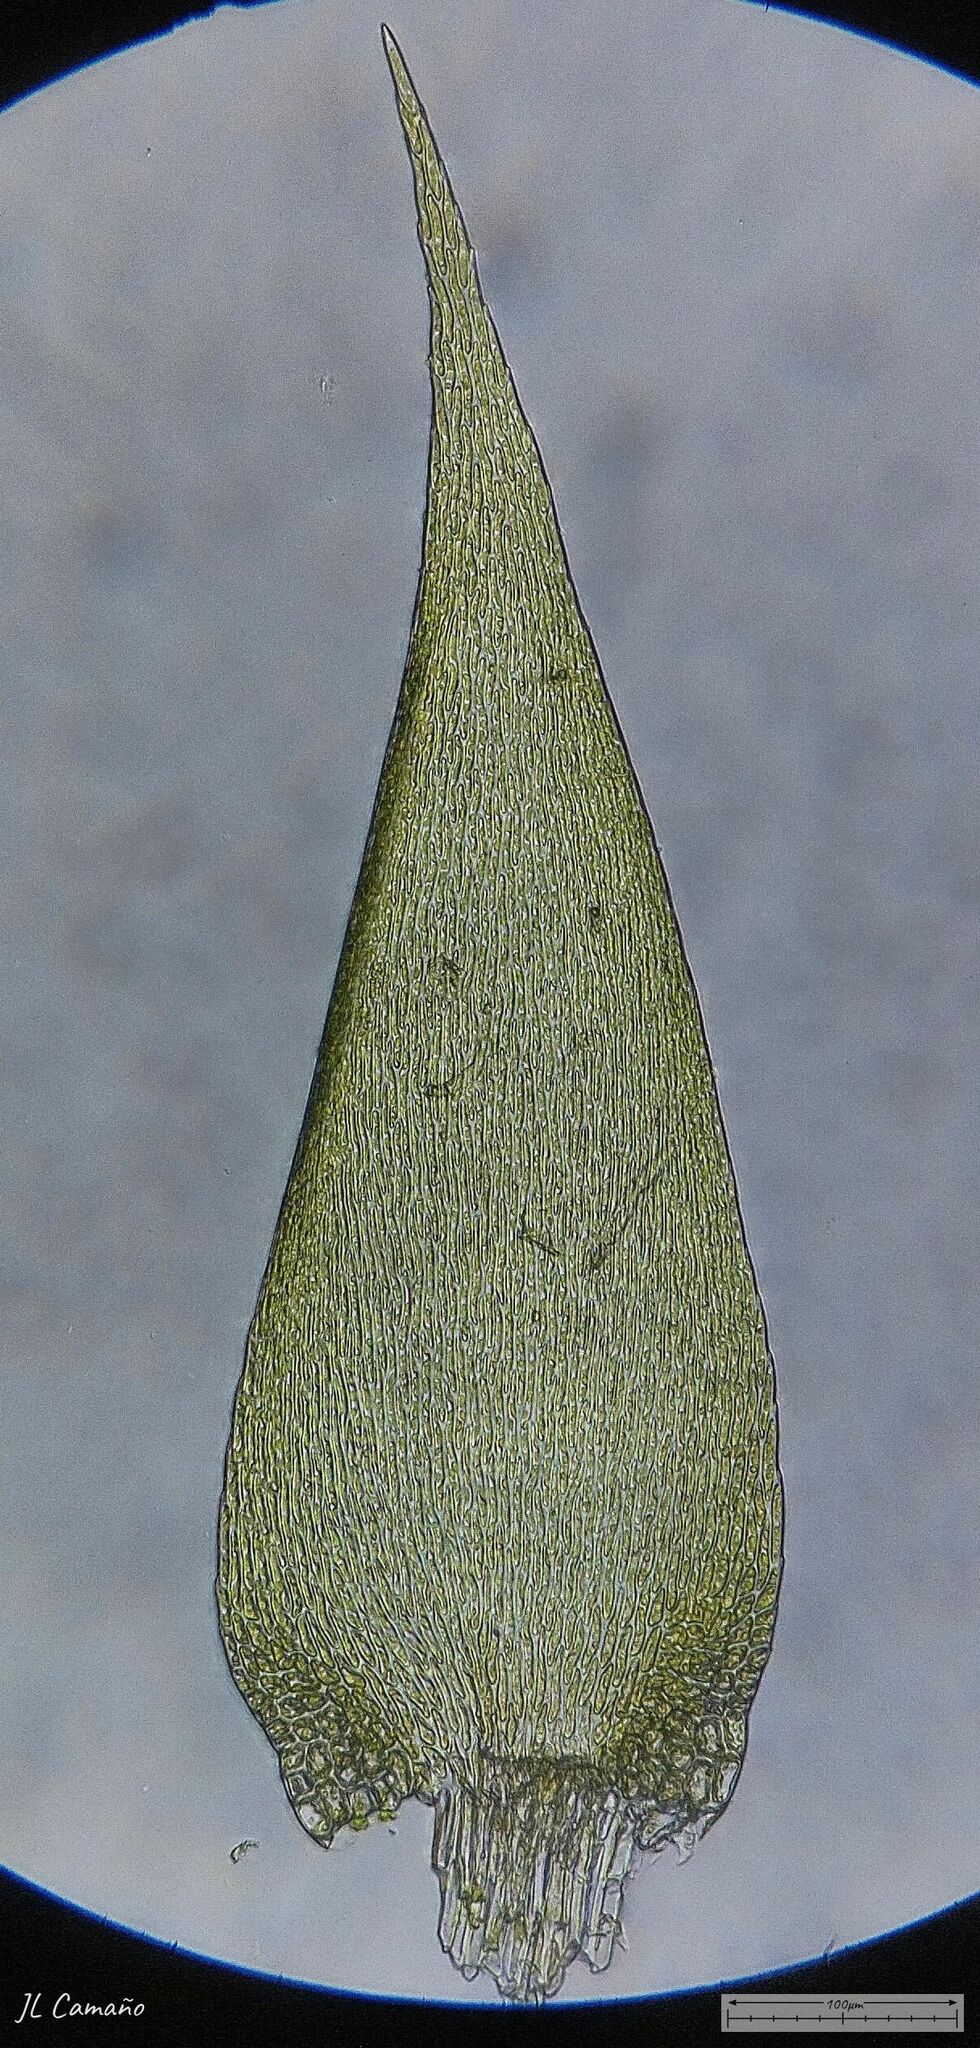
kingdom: Plantae
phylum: Bryophyta
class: Bryopsida
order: Hypnales
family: Sematophyllaceae
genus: Sematophyllum
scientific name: Sematophyllum substrumulosum
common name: Bark signal-moss
